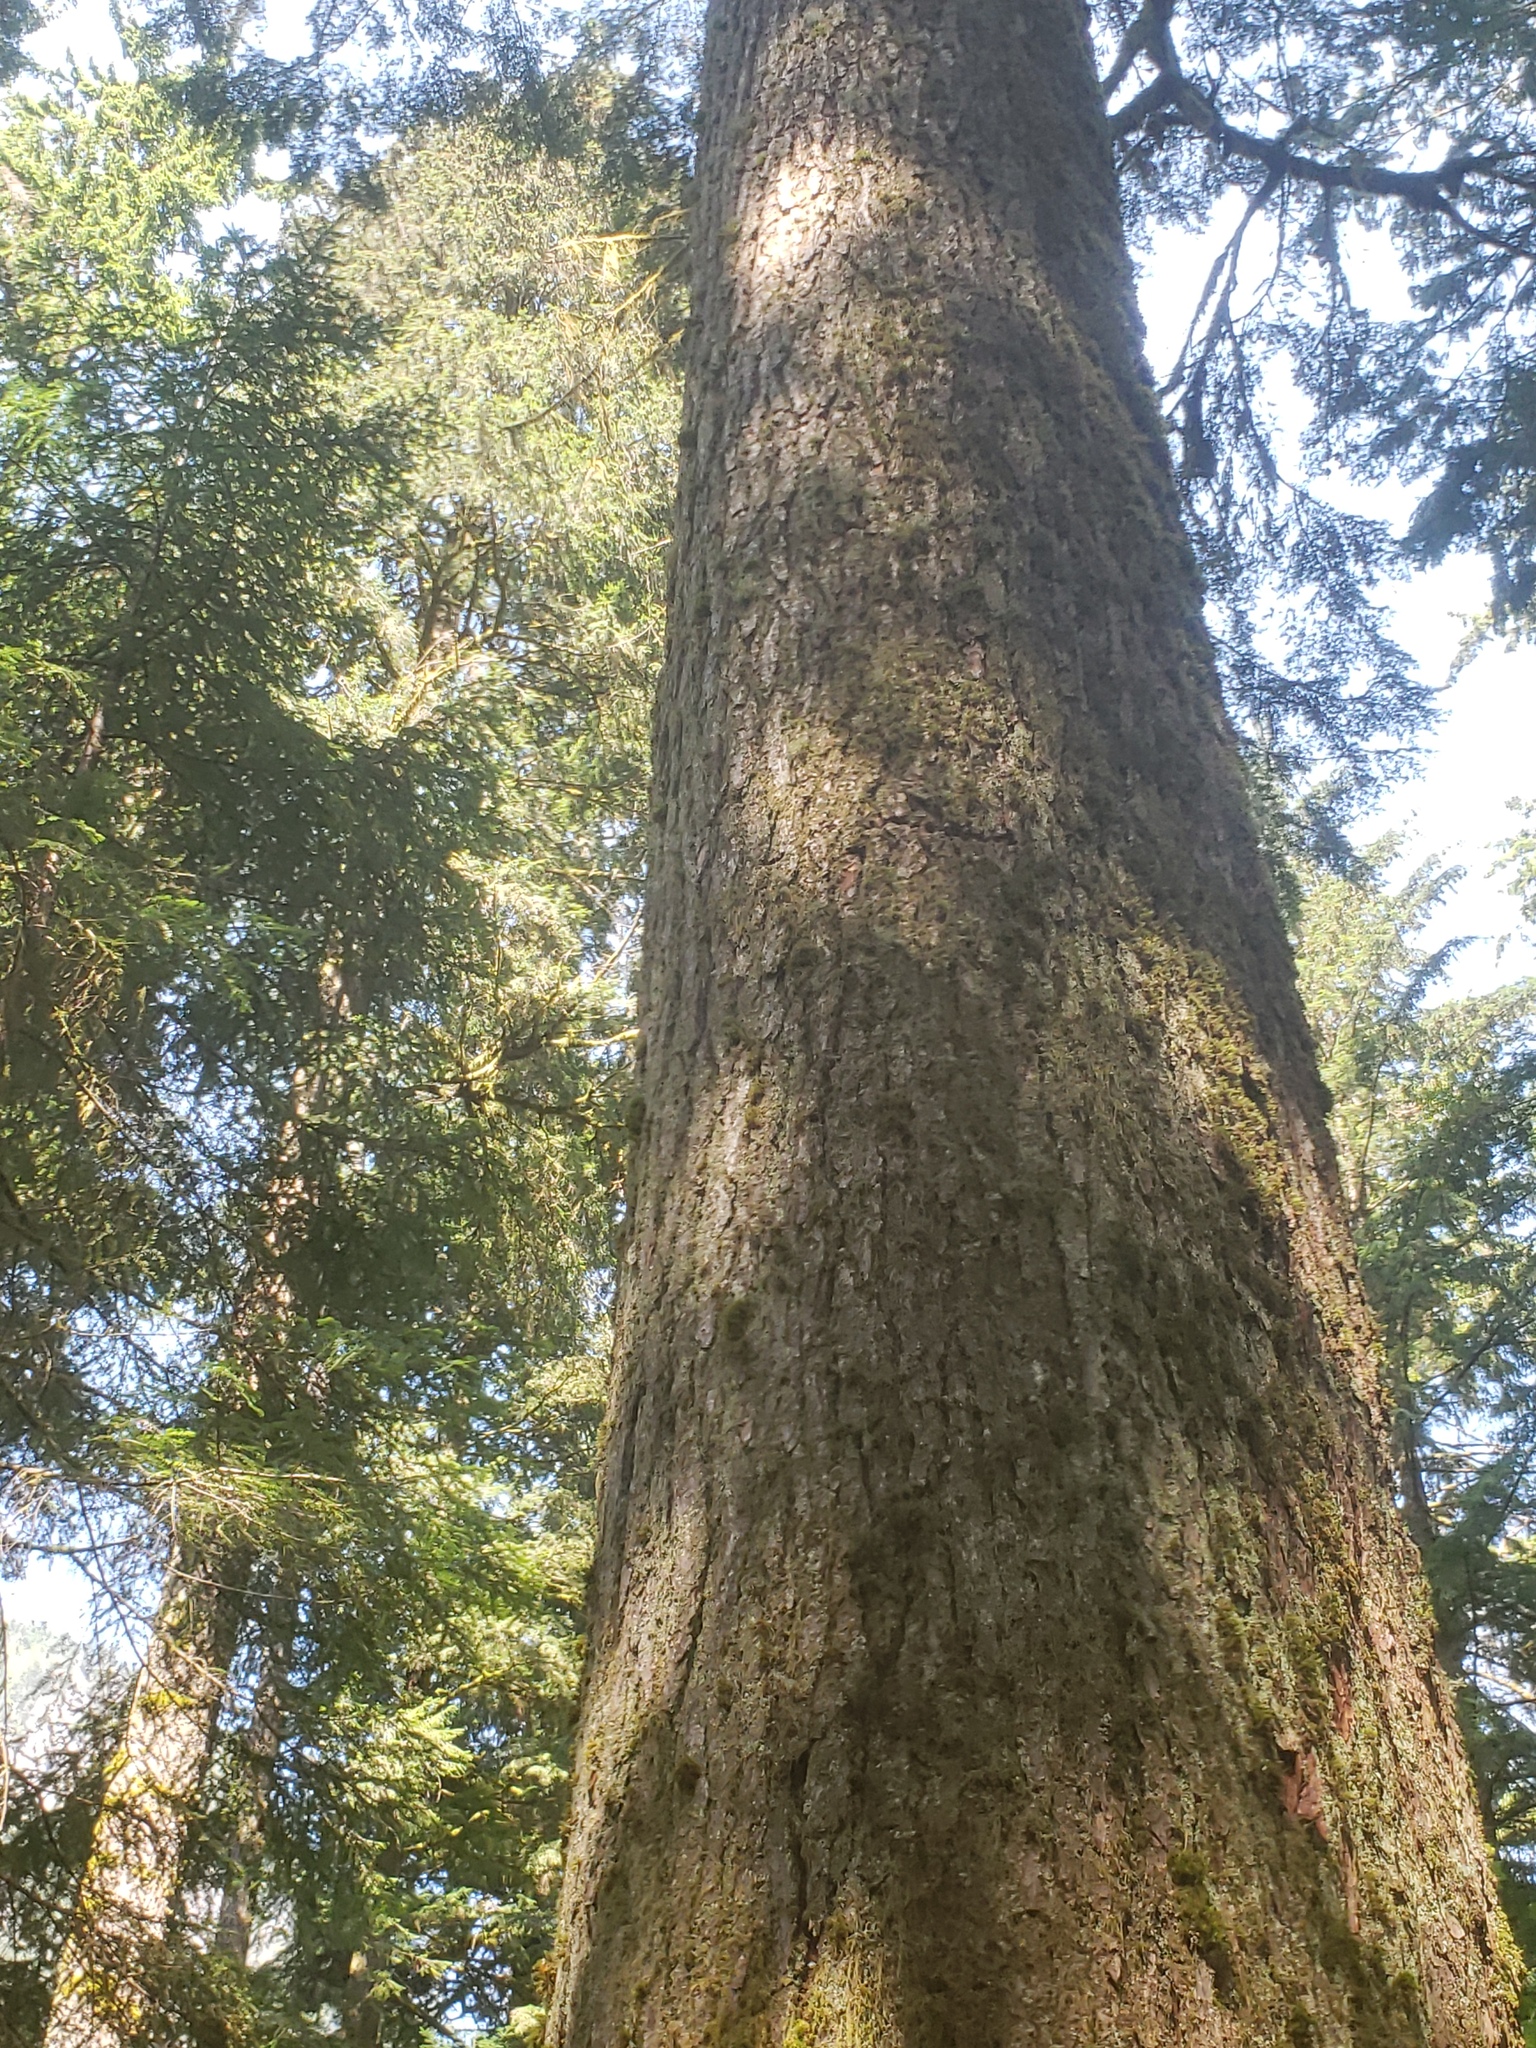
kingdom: Plantae
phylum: Tracheophyta
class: Pinopsida
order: Pinales
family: Pinaceae
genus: Tsuga
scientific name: Tsuga heterophylla
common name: Western hemlock
